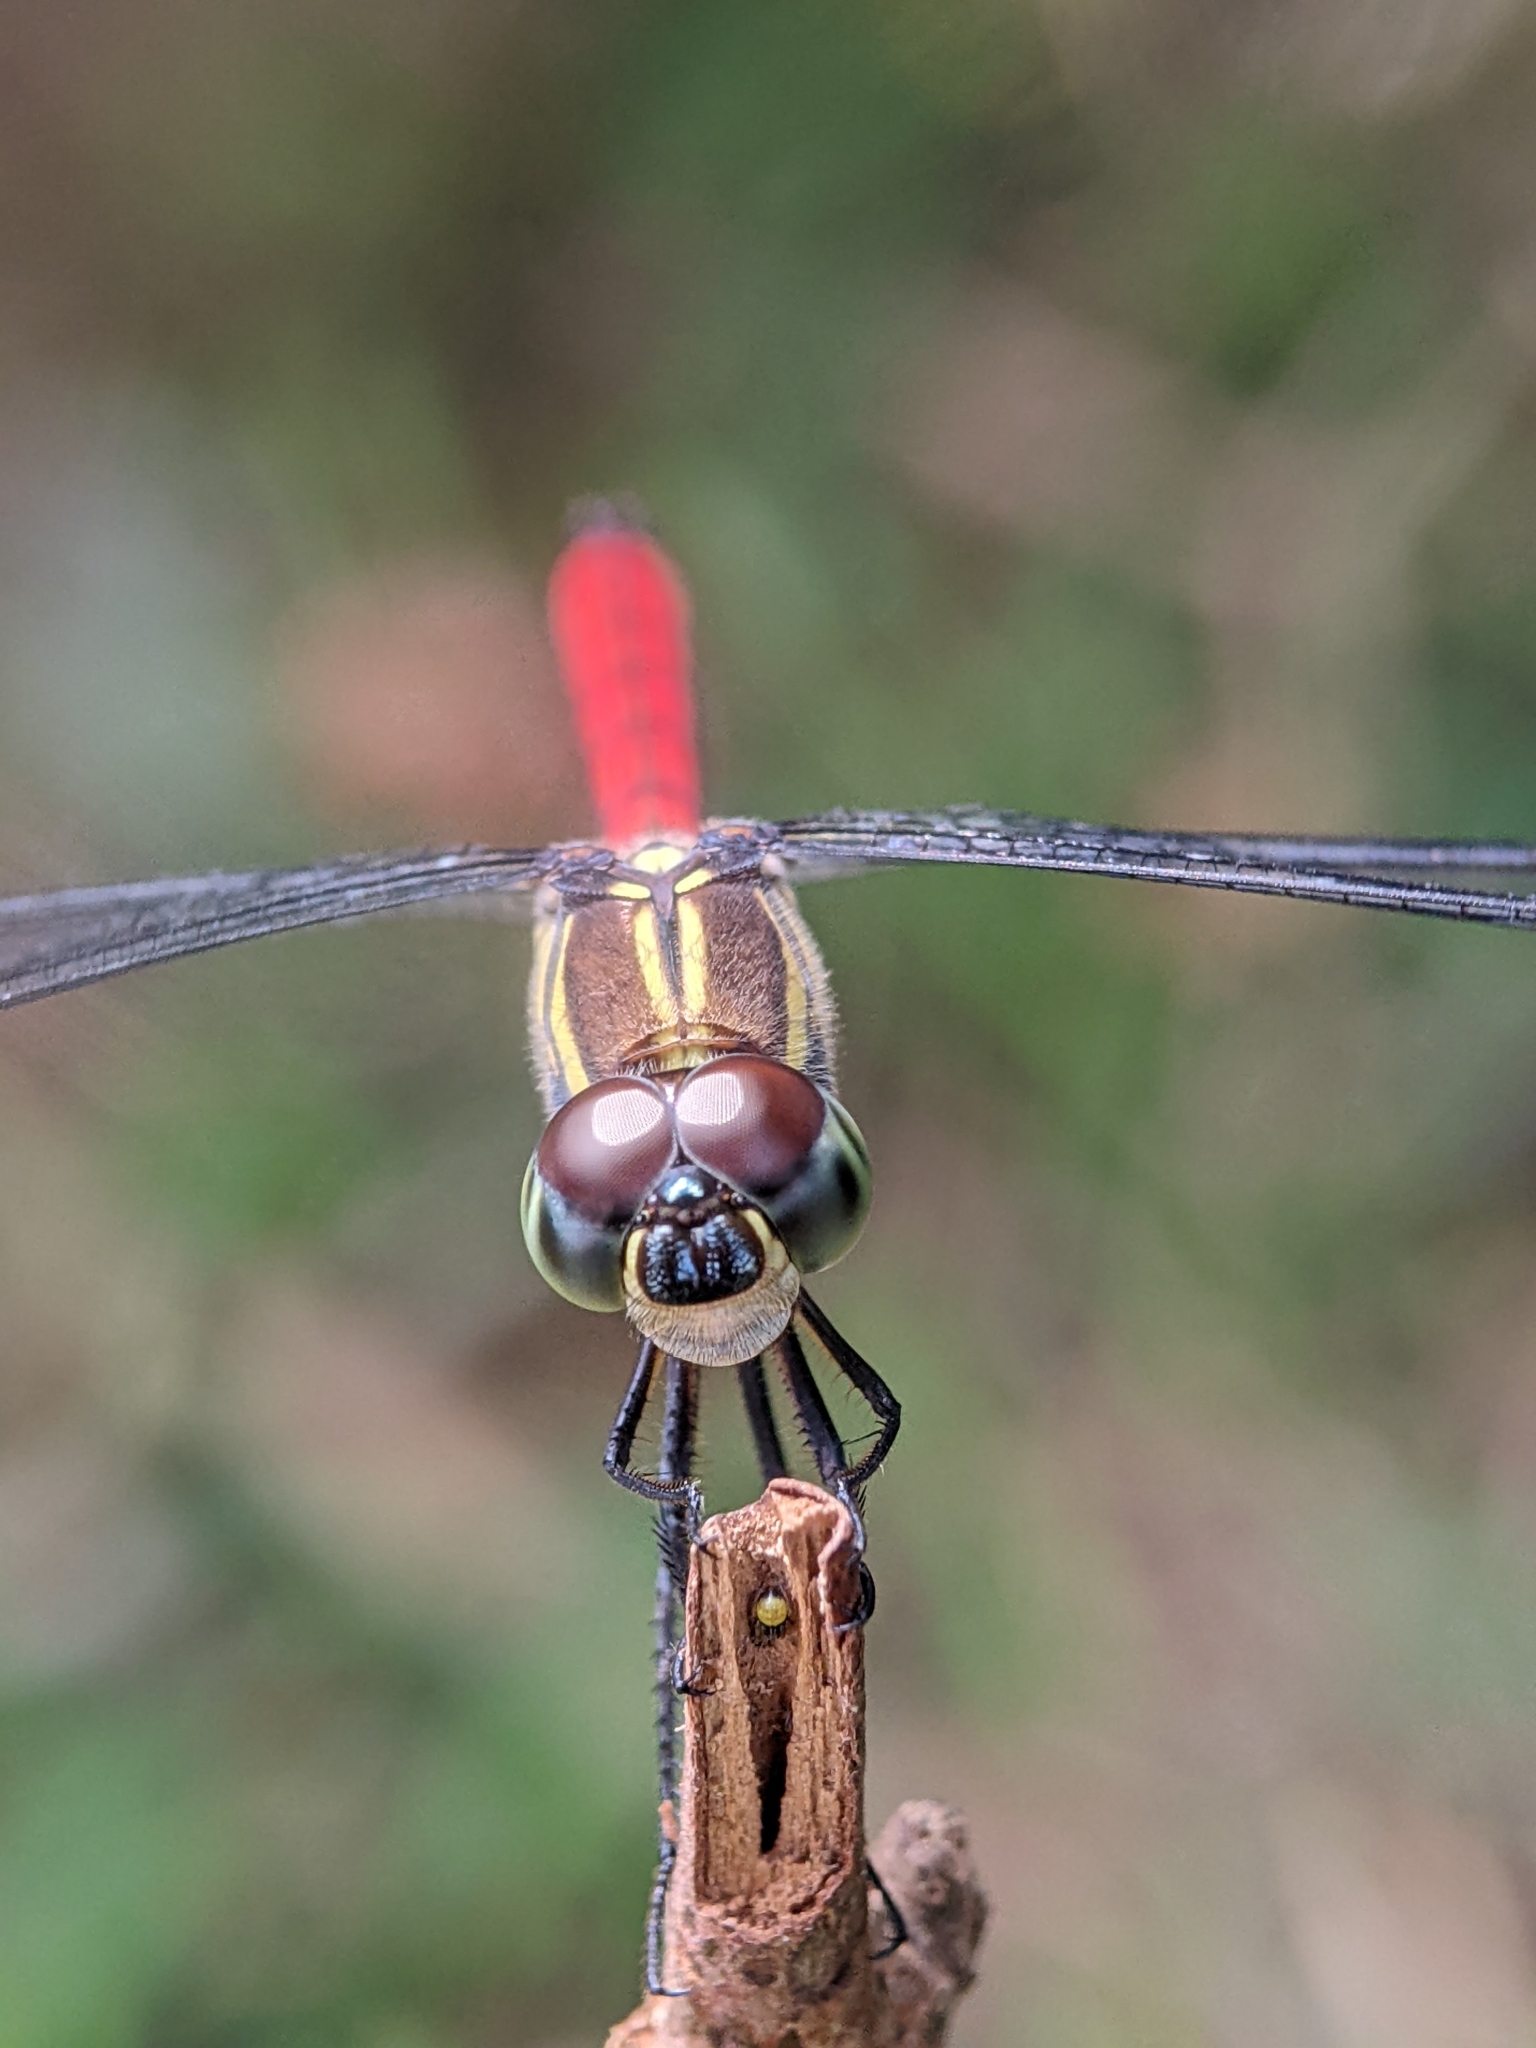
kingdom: Animalia
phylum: Arthropoda
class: Insecta
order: Odonata
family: Libellulidae
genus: Lathrecista
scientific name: Lathrecista asiatica
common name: Scarlet grenadier
